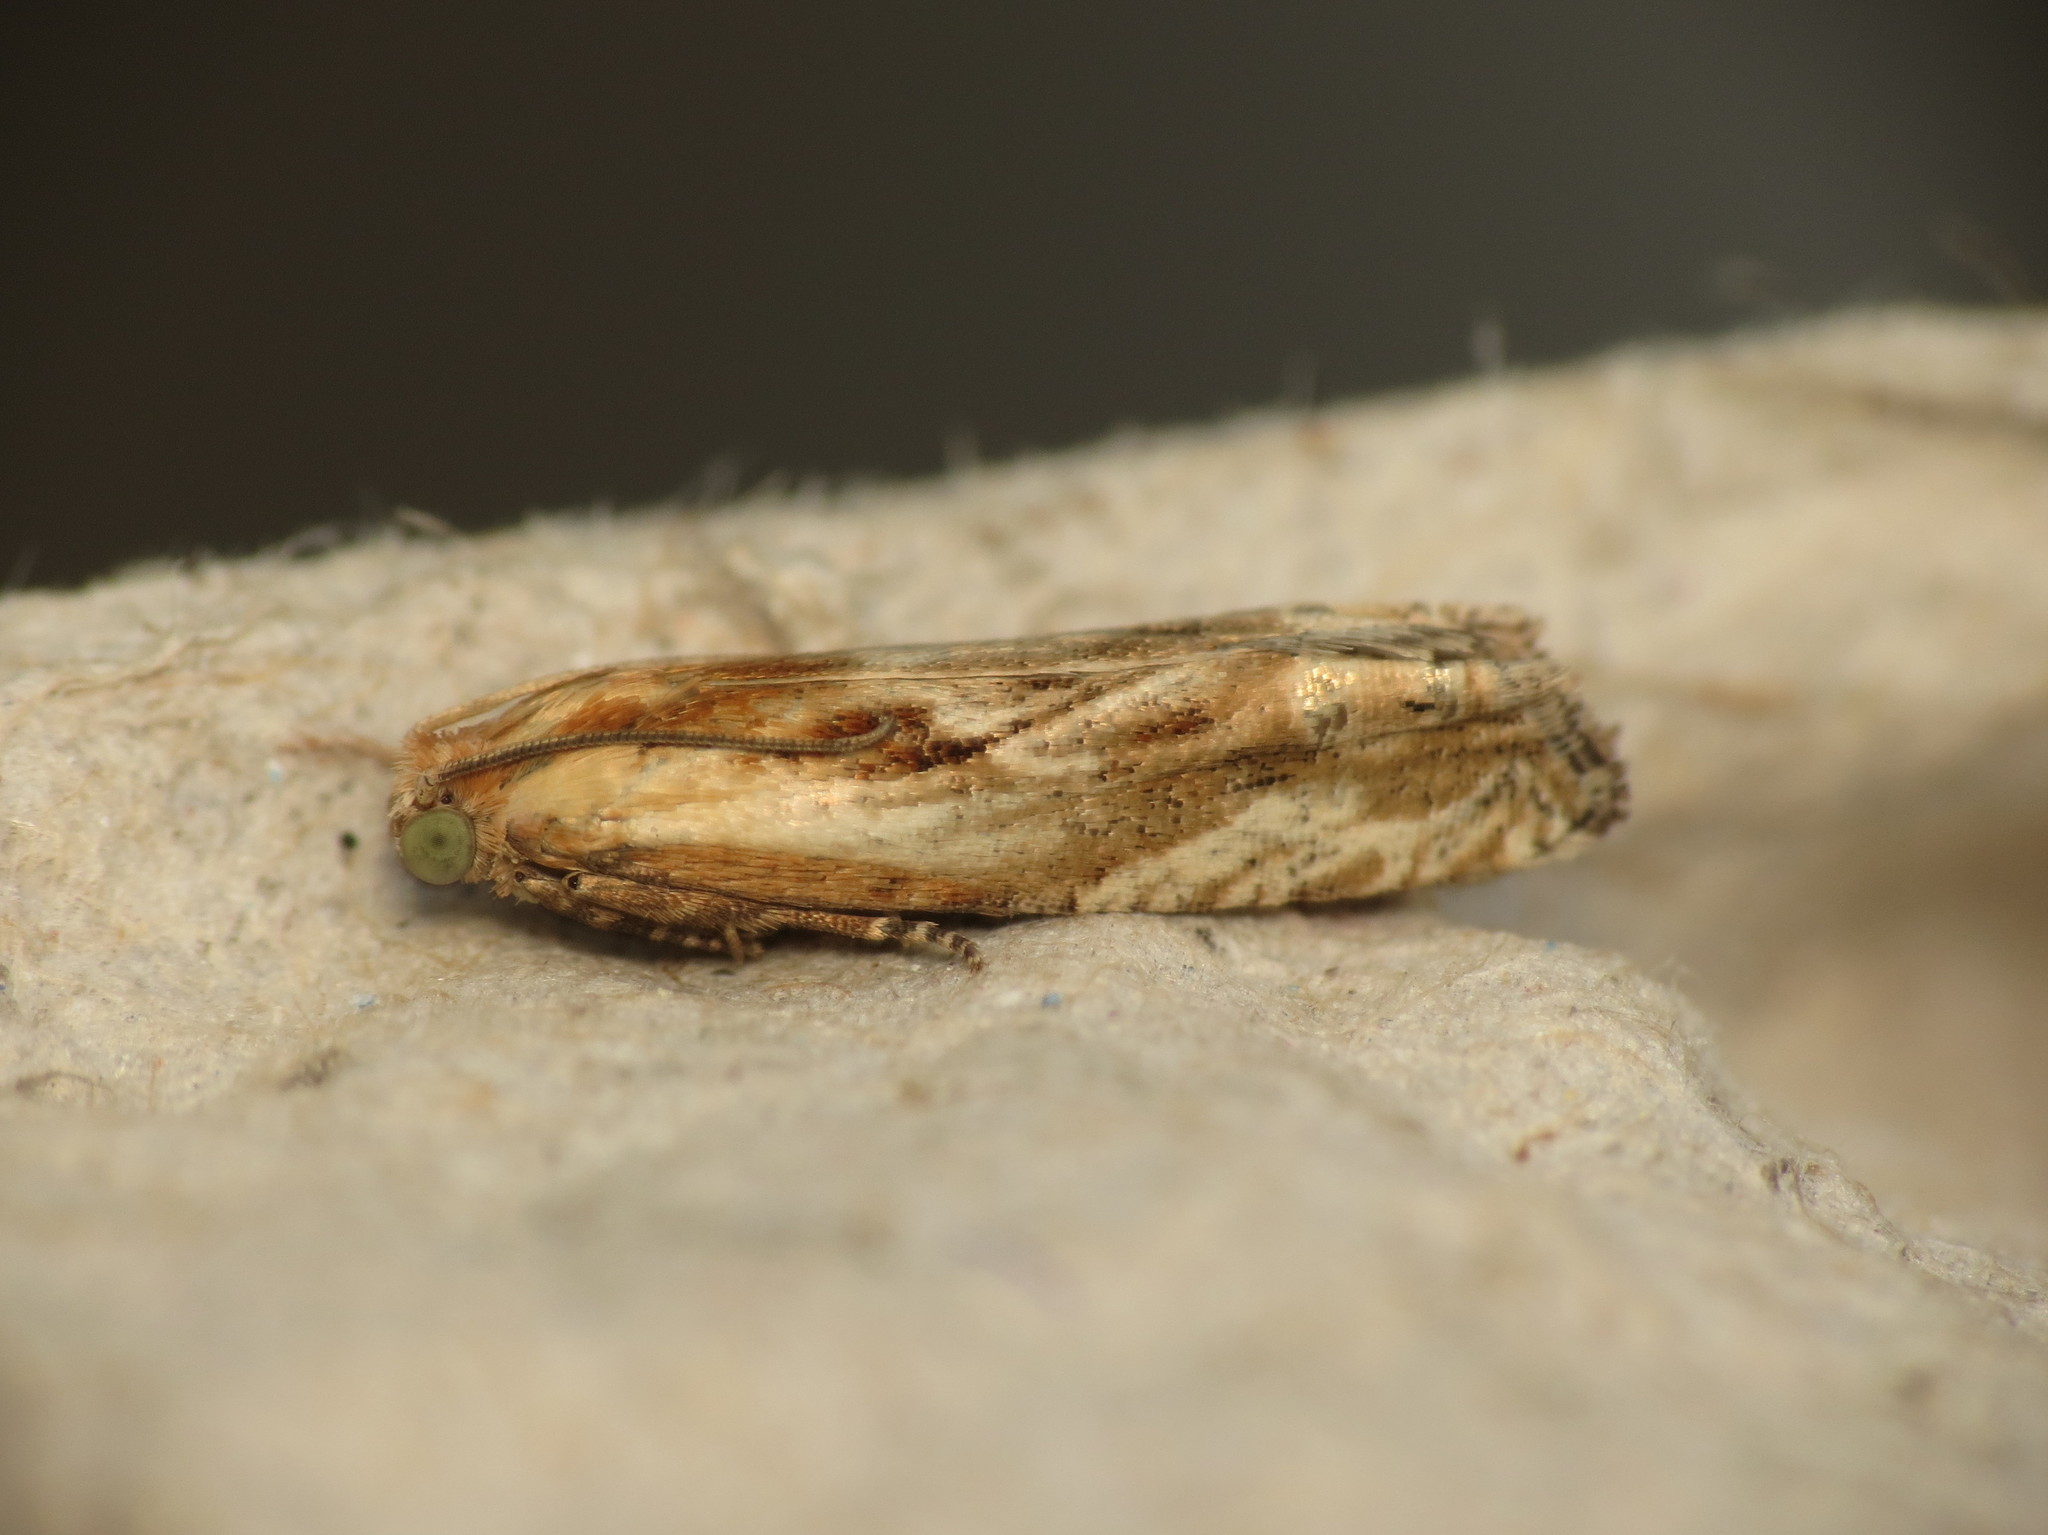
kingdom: Animalia
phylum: Arthropoda
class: Insecta
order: Lepidoptera
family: Tortricidae
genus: Eucosma
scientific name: Eucosma cana
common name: Hoary belle
